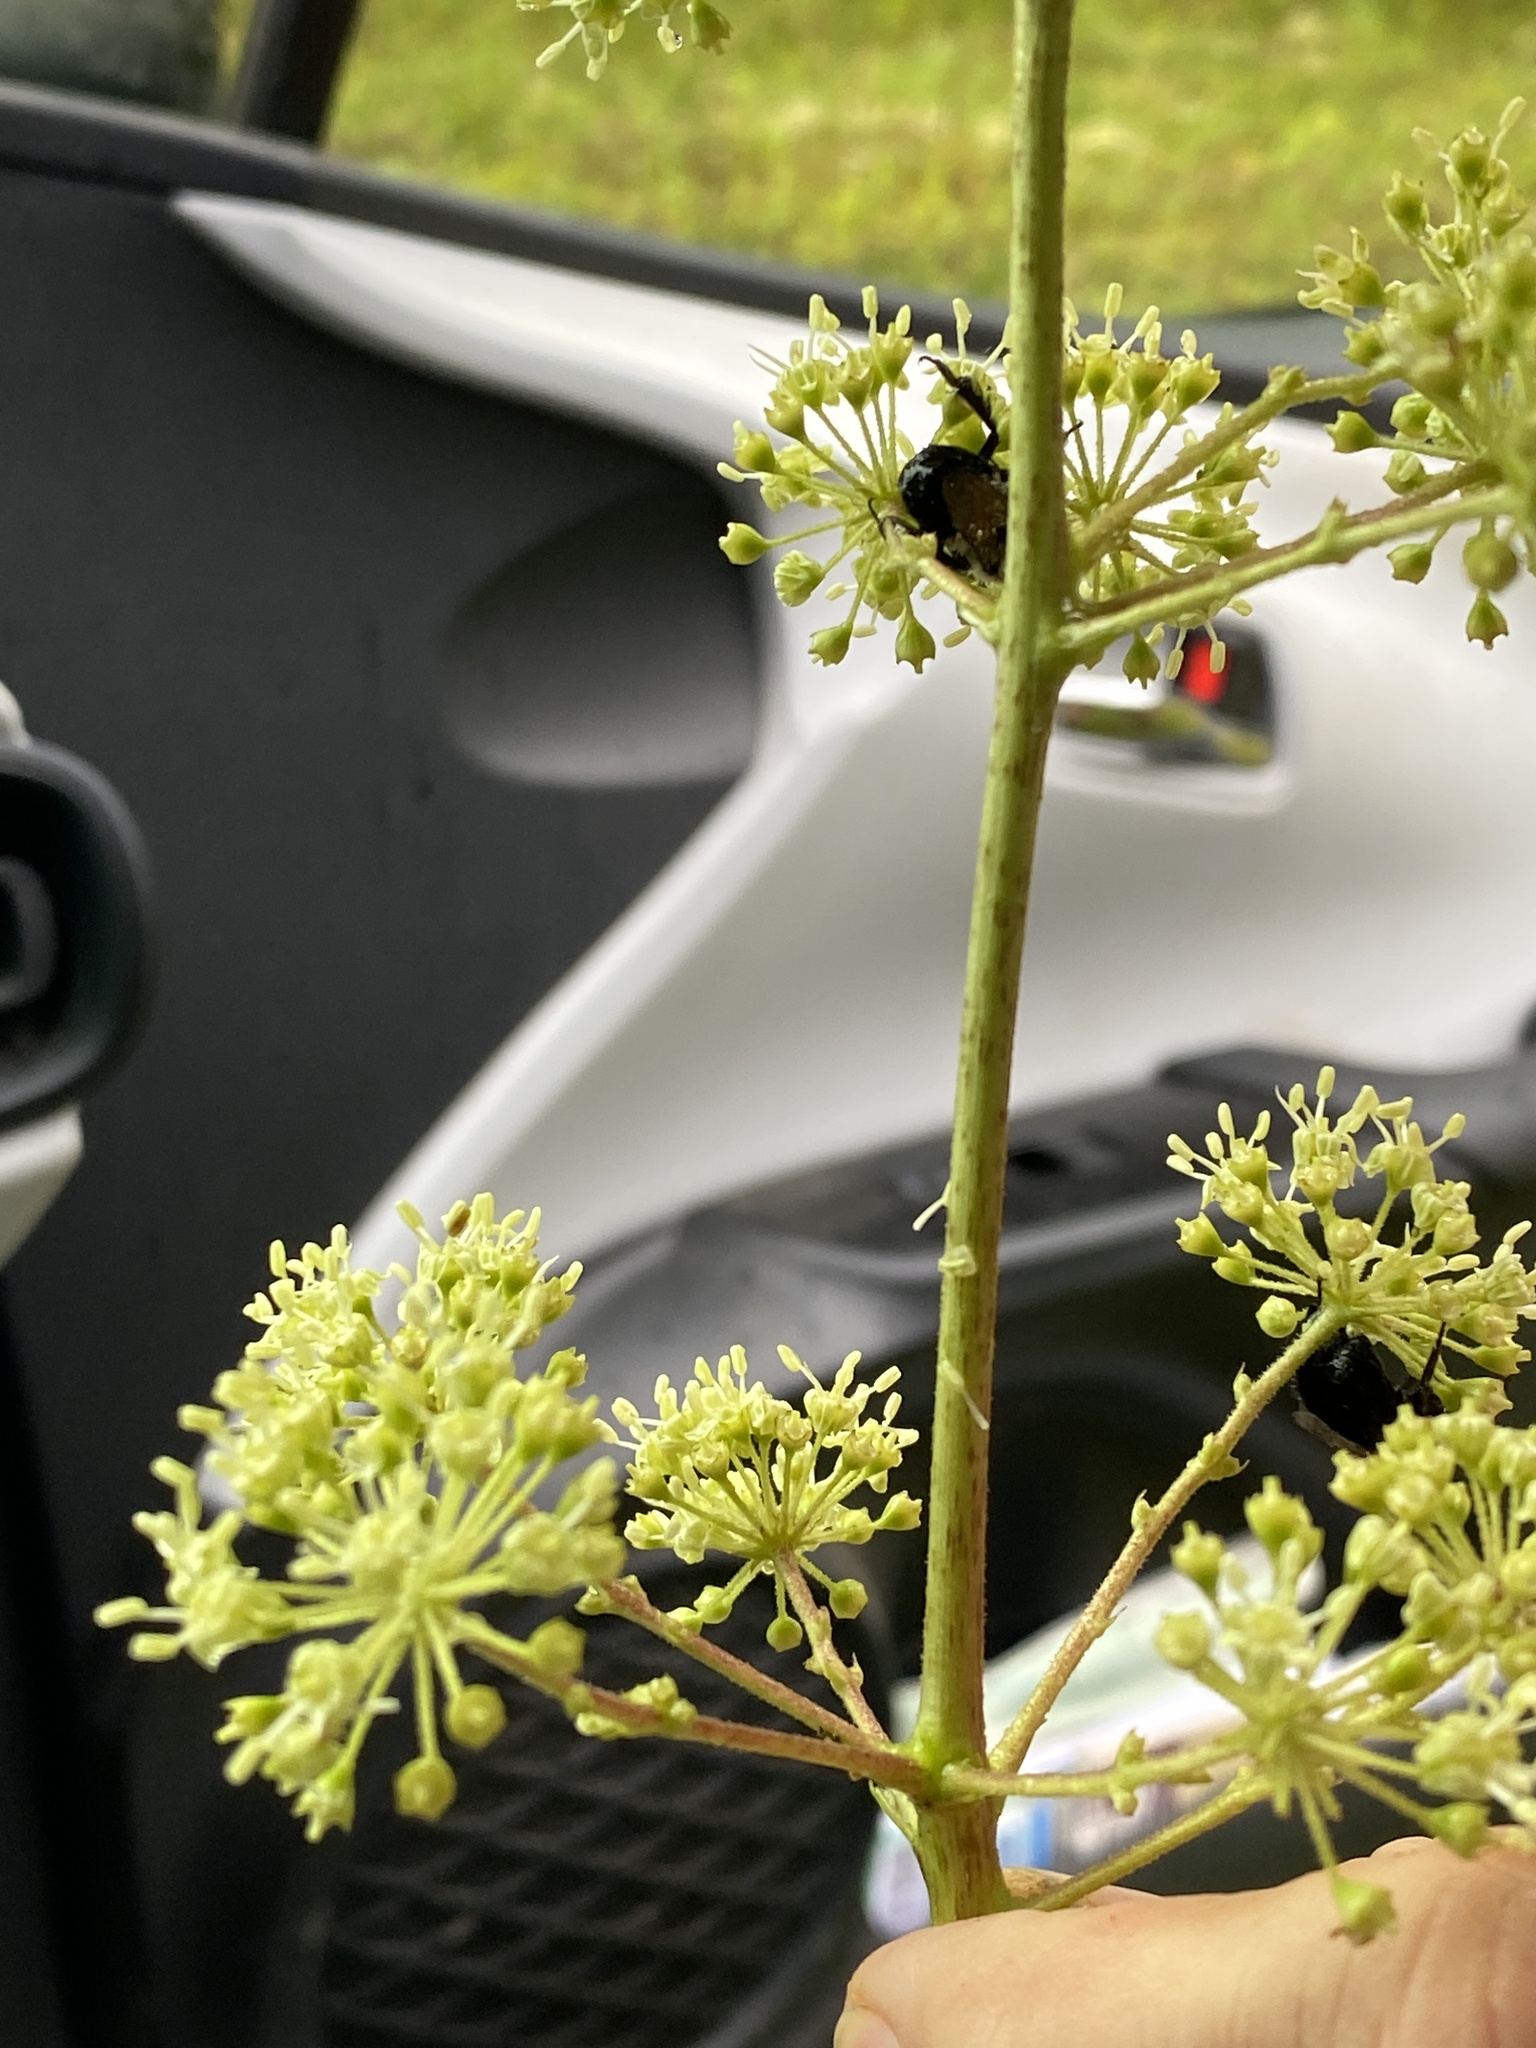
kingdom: Plantae
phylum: Tracheophyta
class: Magnoliopsida
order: Apiales
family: Araliaceae
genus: Aralia
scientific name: Aralia spinosa
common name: Hercules'-club
